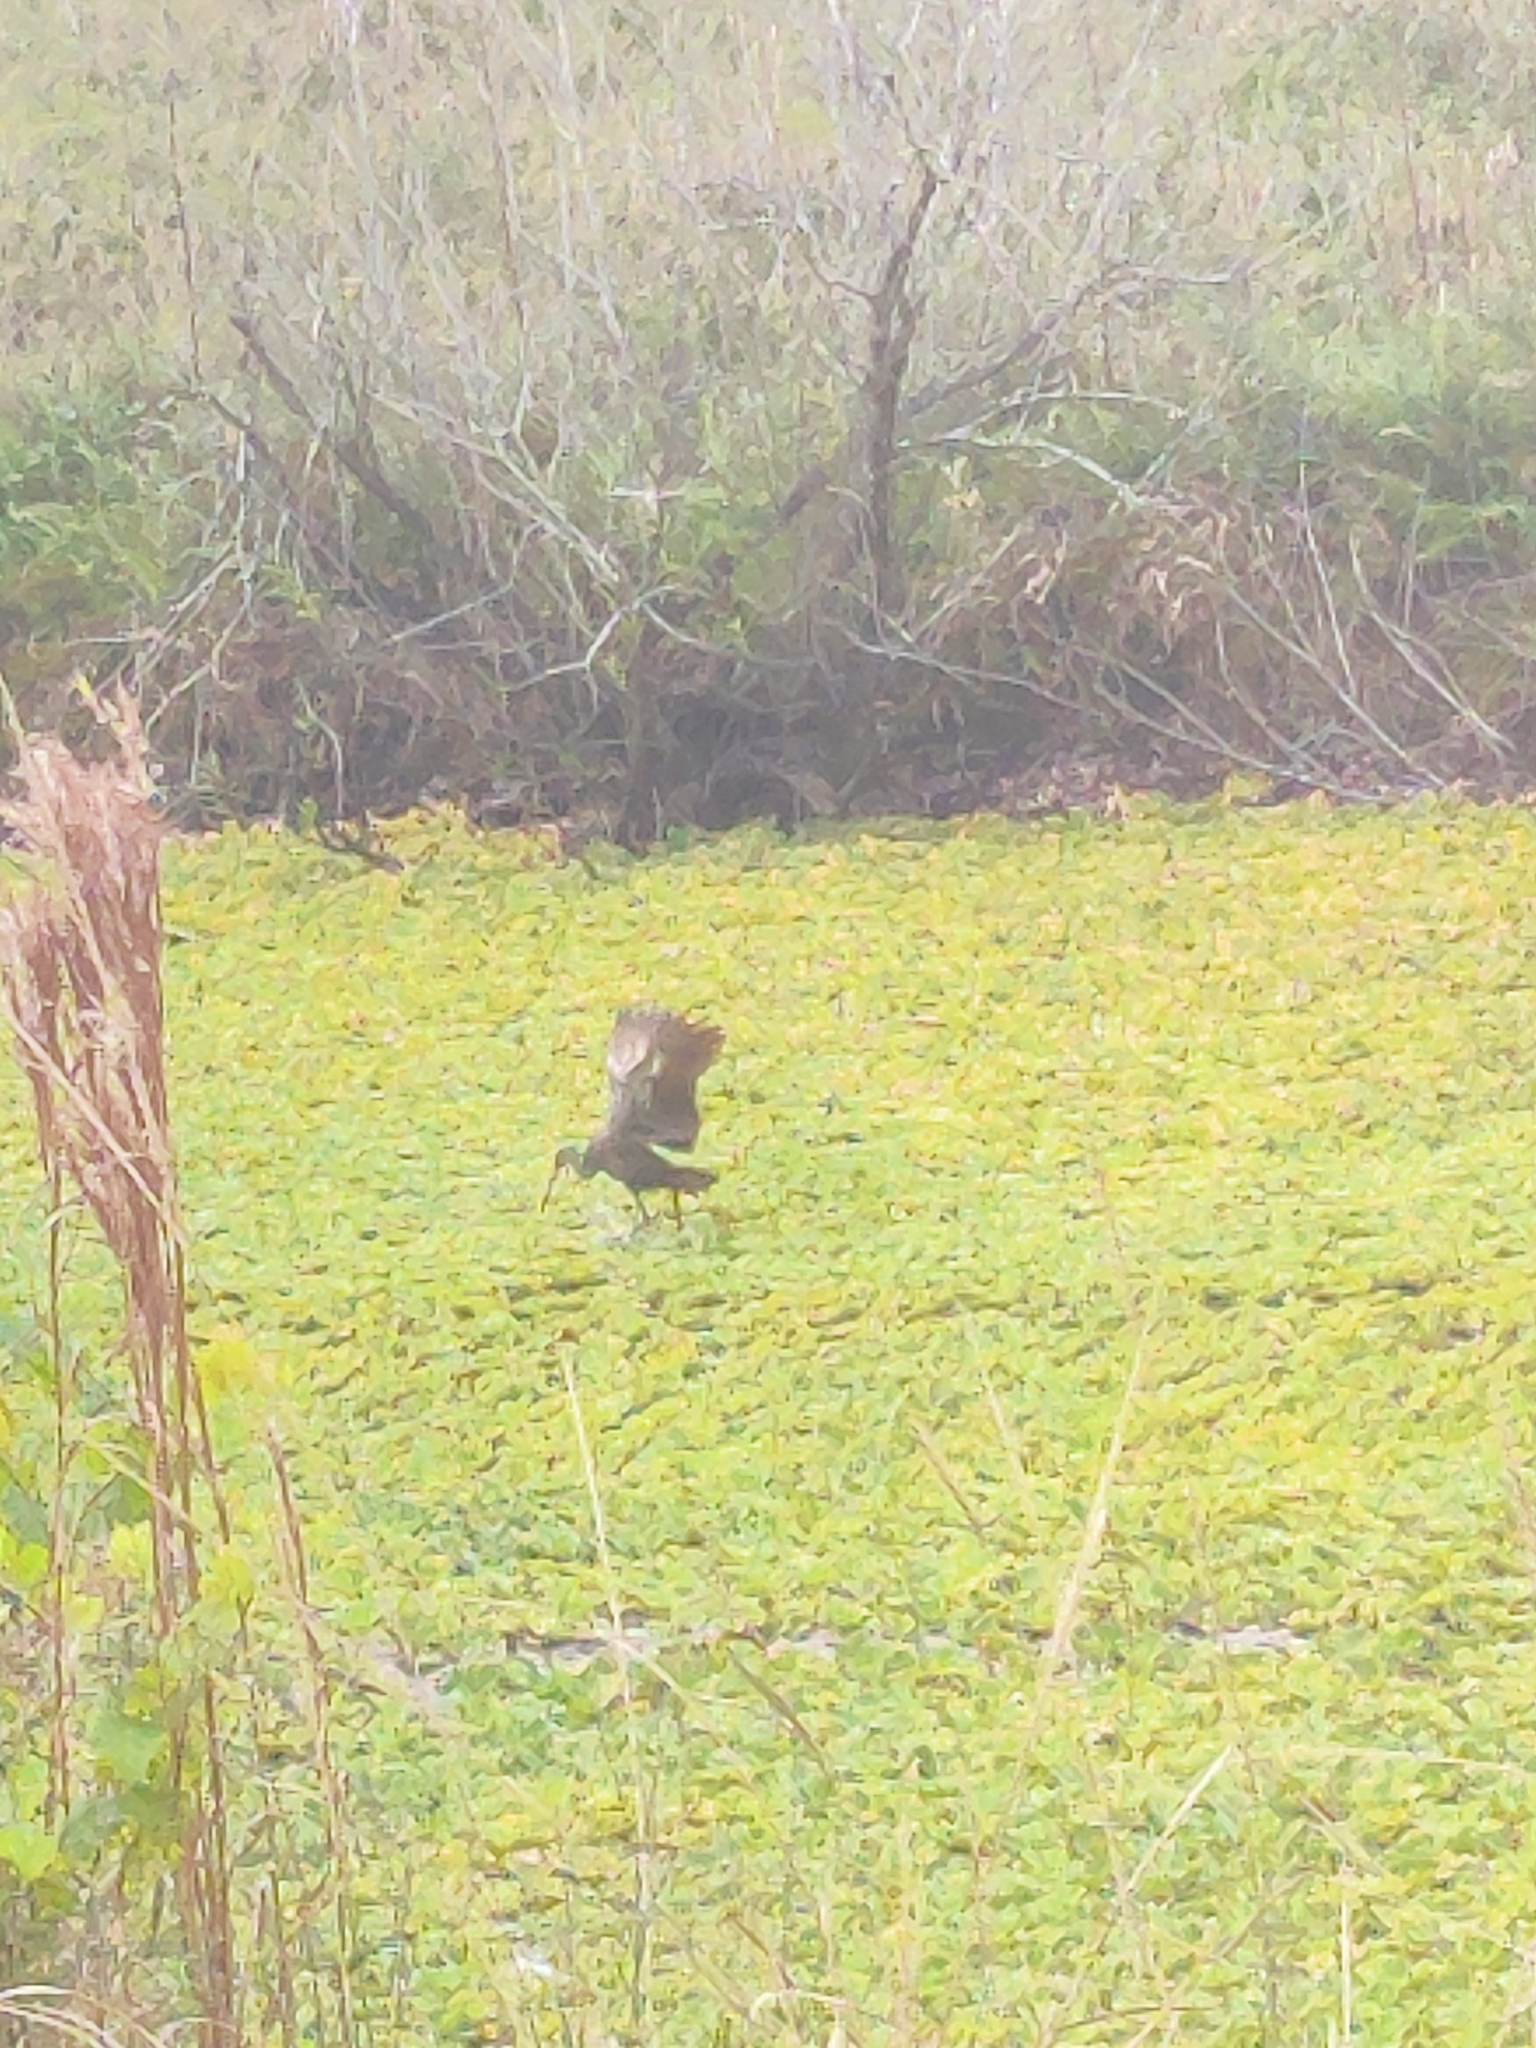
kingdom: Animalia
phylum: Chordata
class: Aves
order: Gruiformes
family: Aramidae
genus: Aramus
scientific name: Aramus guarauna
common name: Limpkin
